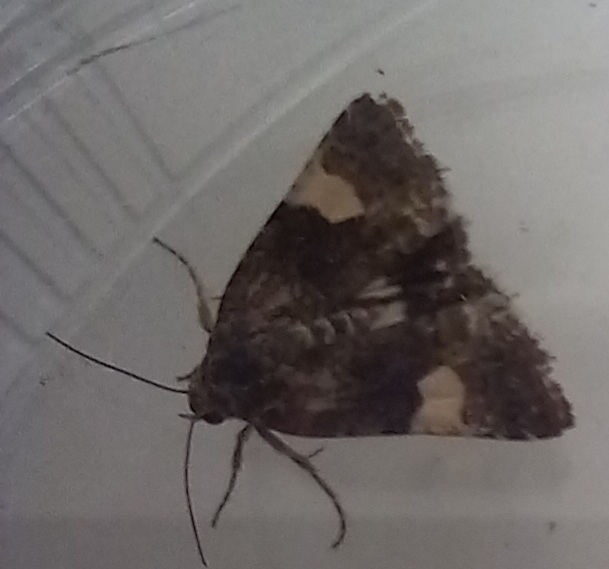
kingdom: Animalia
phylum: Arthropoda
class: Insecta
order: Lepidoptera
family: Erebidae
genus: Tyta
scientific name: Tyta luctuosa
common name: Four-spotted
